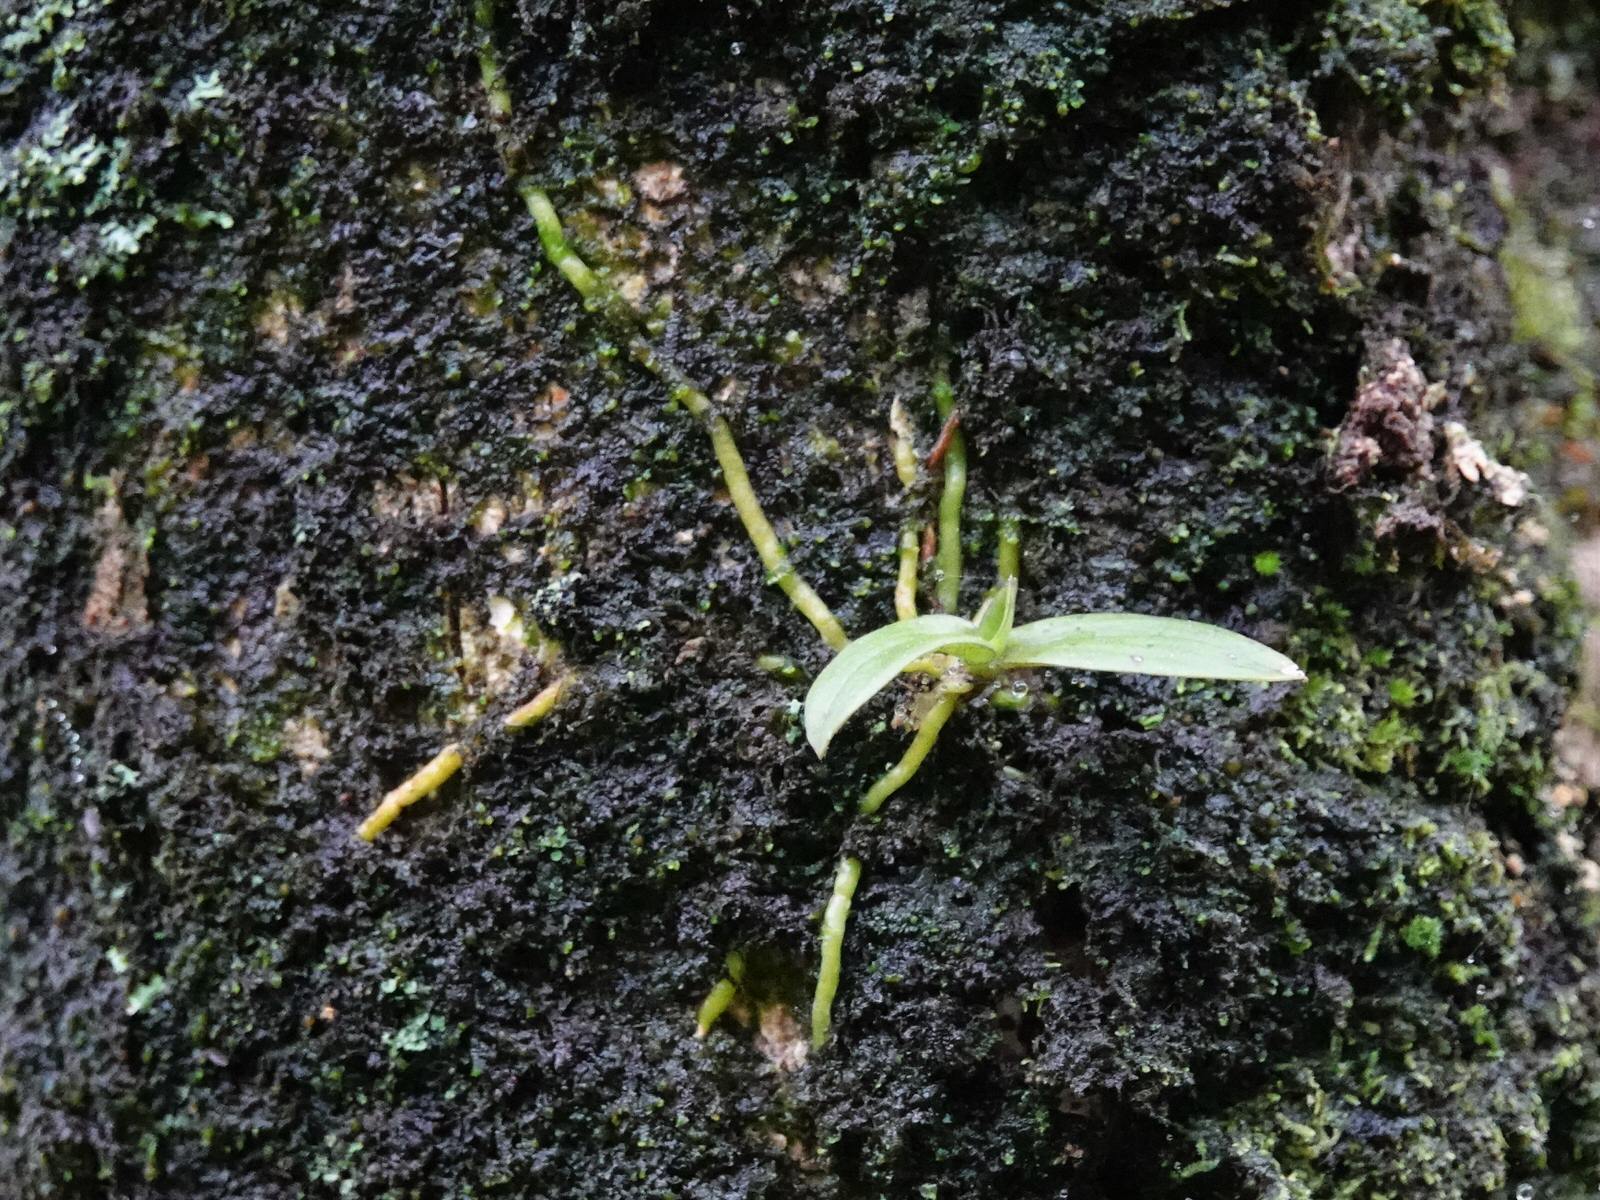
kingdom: Plantae
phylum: Tracheophyta
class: Liliopsida
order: Asparagales
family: Orchidaceae
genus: Drymoanthus
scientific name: Drymoanthus adversus
